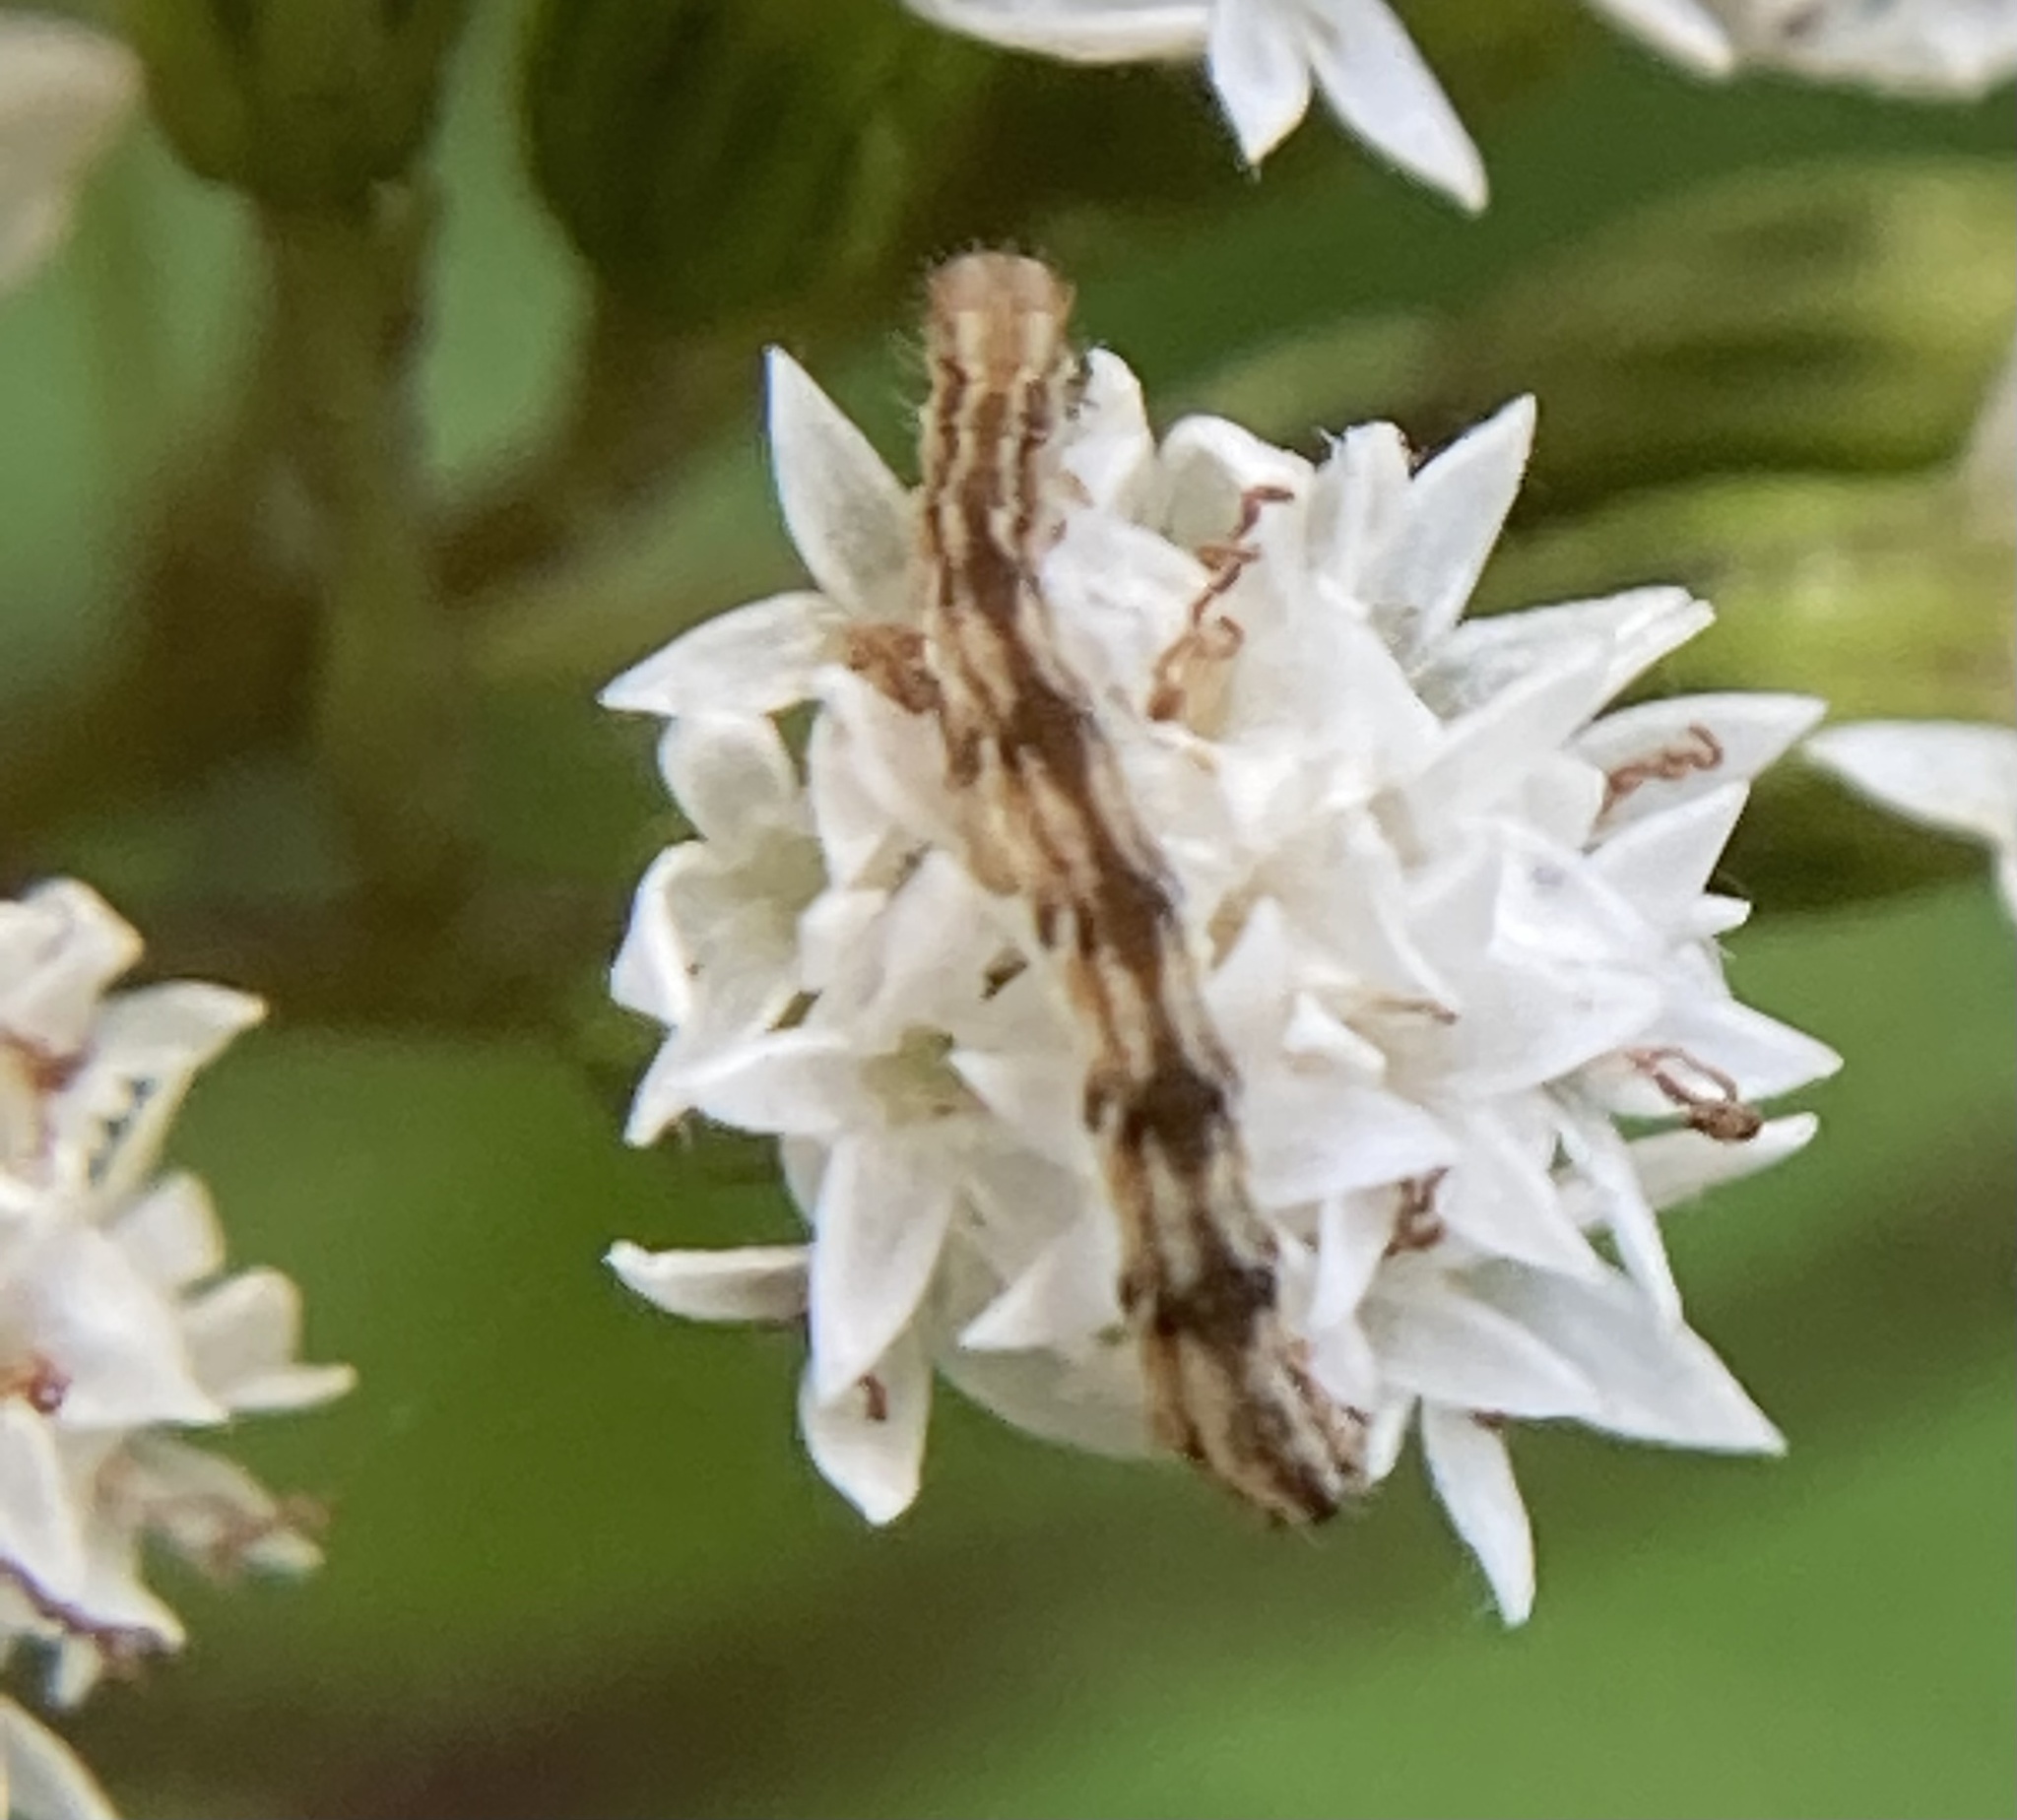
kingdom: Animalia
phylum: Arthropoda
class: Insecta
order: Lepidoptera
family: Geometridae
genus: Eupithecia
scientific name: Eupithecia miserulata
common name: Common eupithecia
